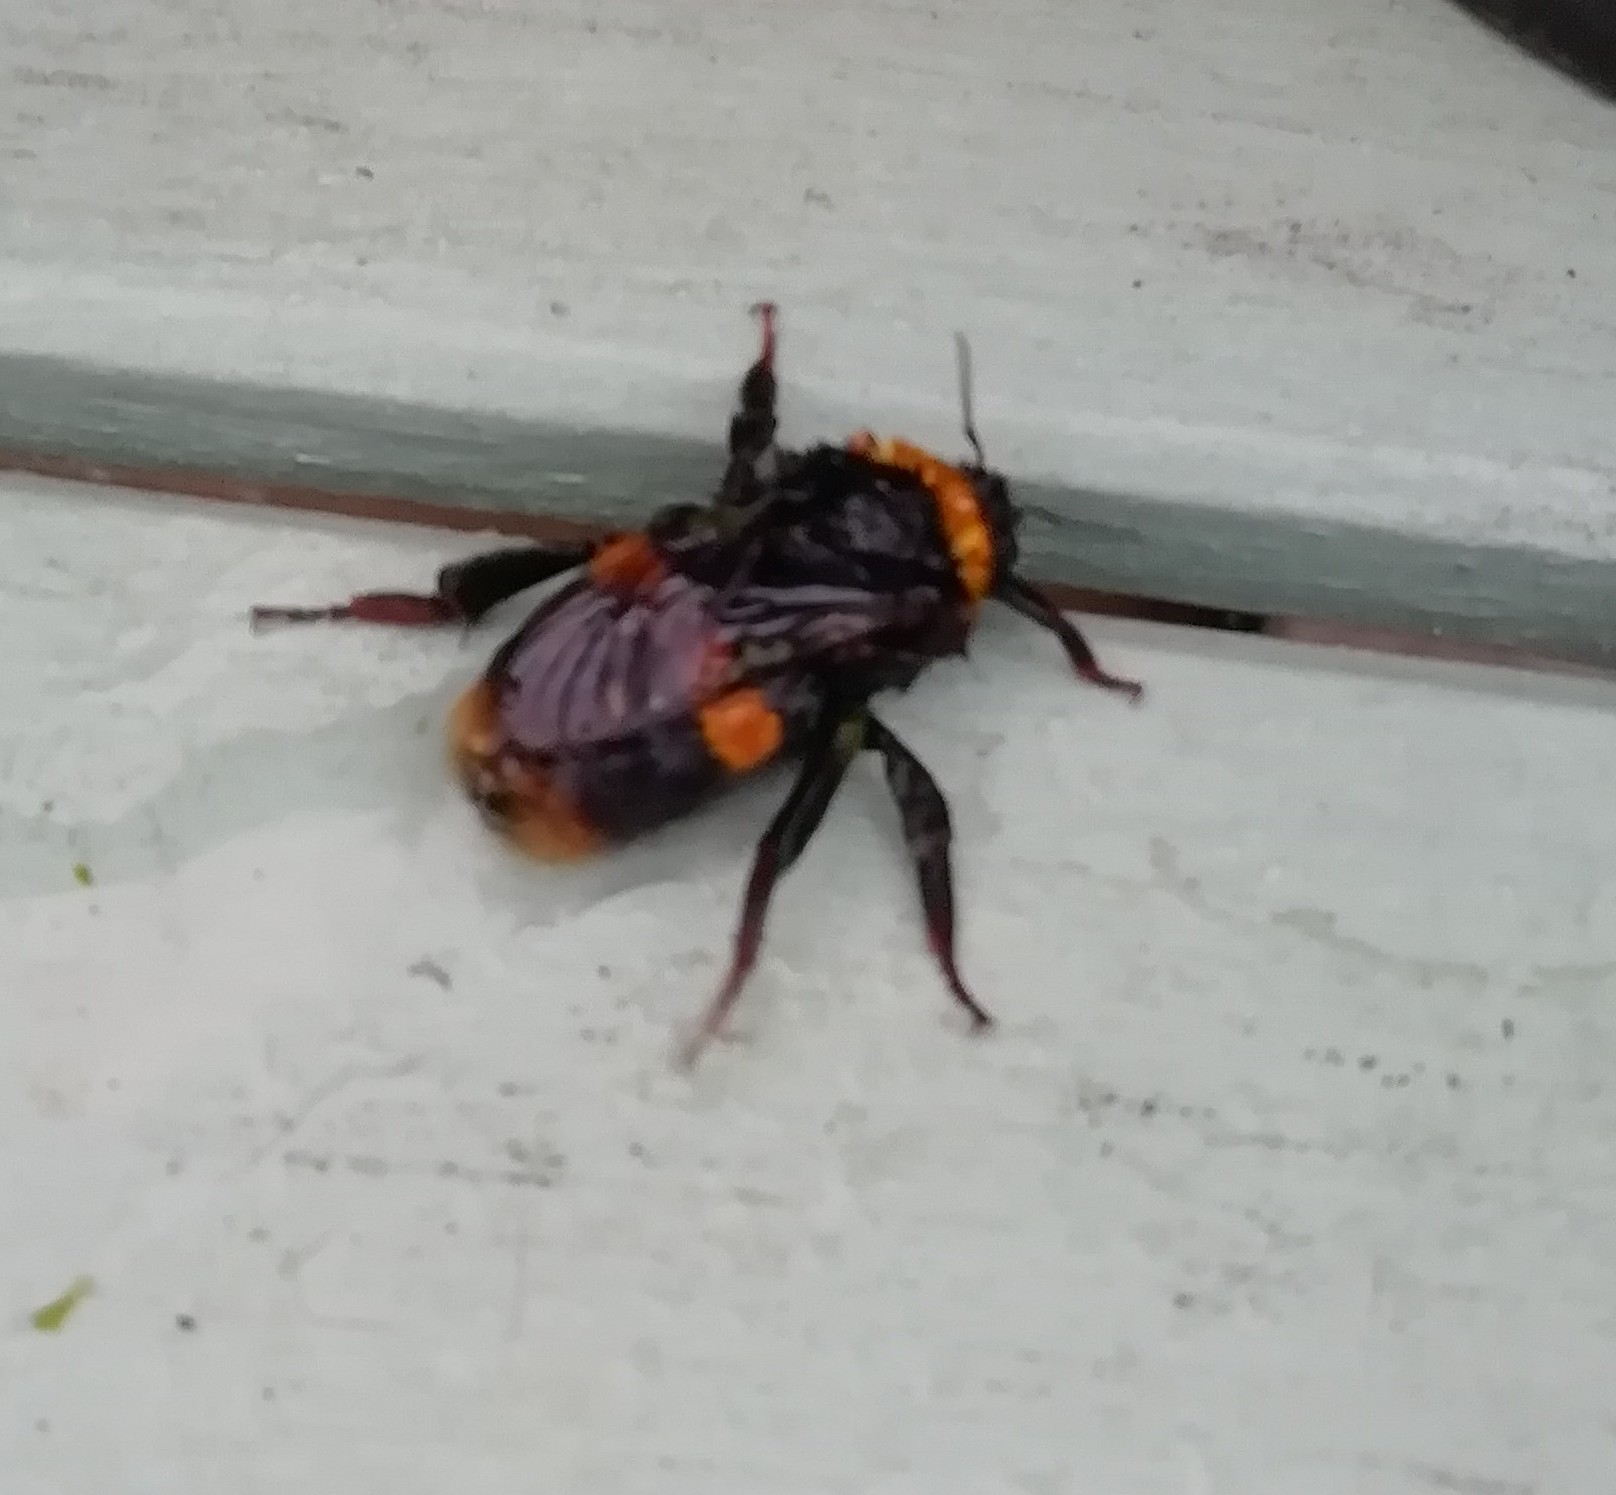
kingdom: Animalia
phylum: Arthropoda
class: Insecta
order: Hymenoptera
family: Apidae
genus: Bombus
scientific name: Bombus terrestris
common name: Buff-tailed bumblebee
